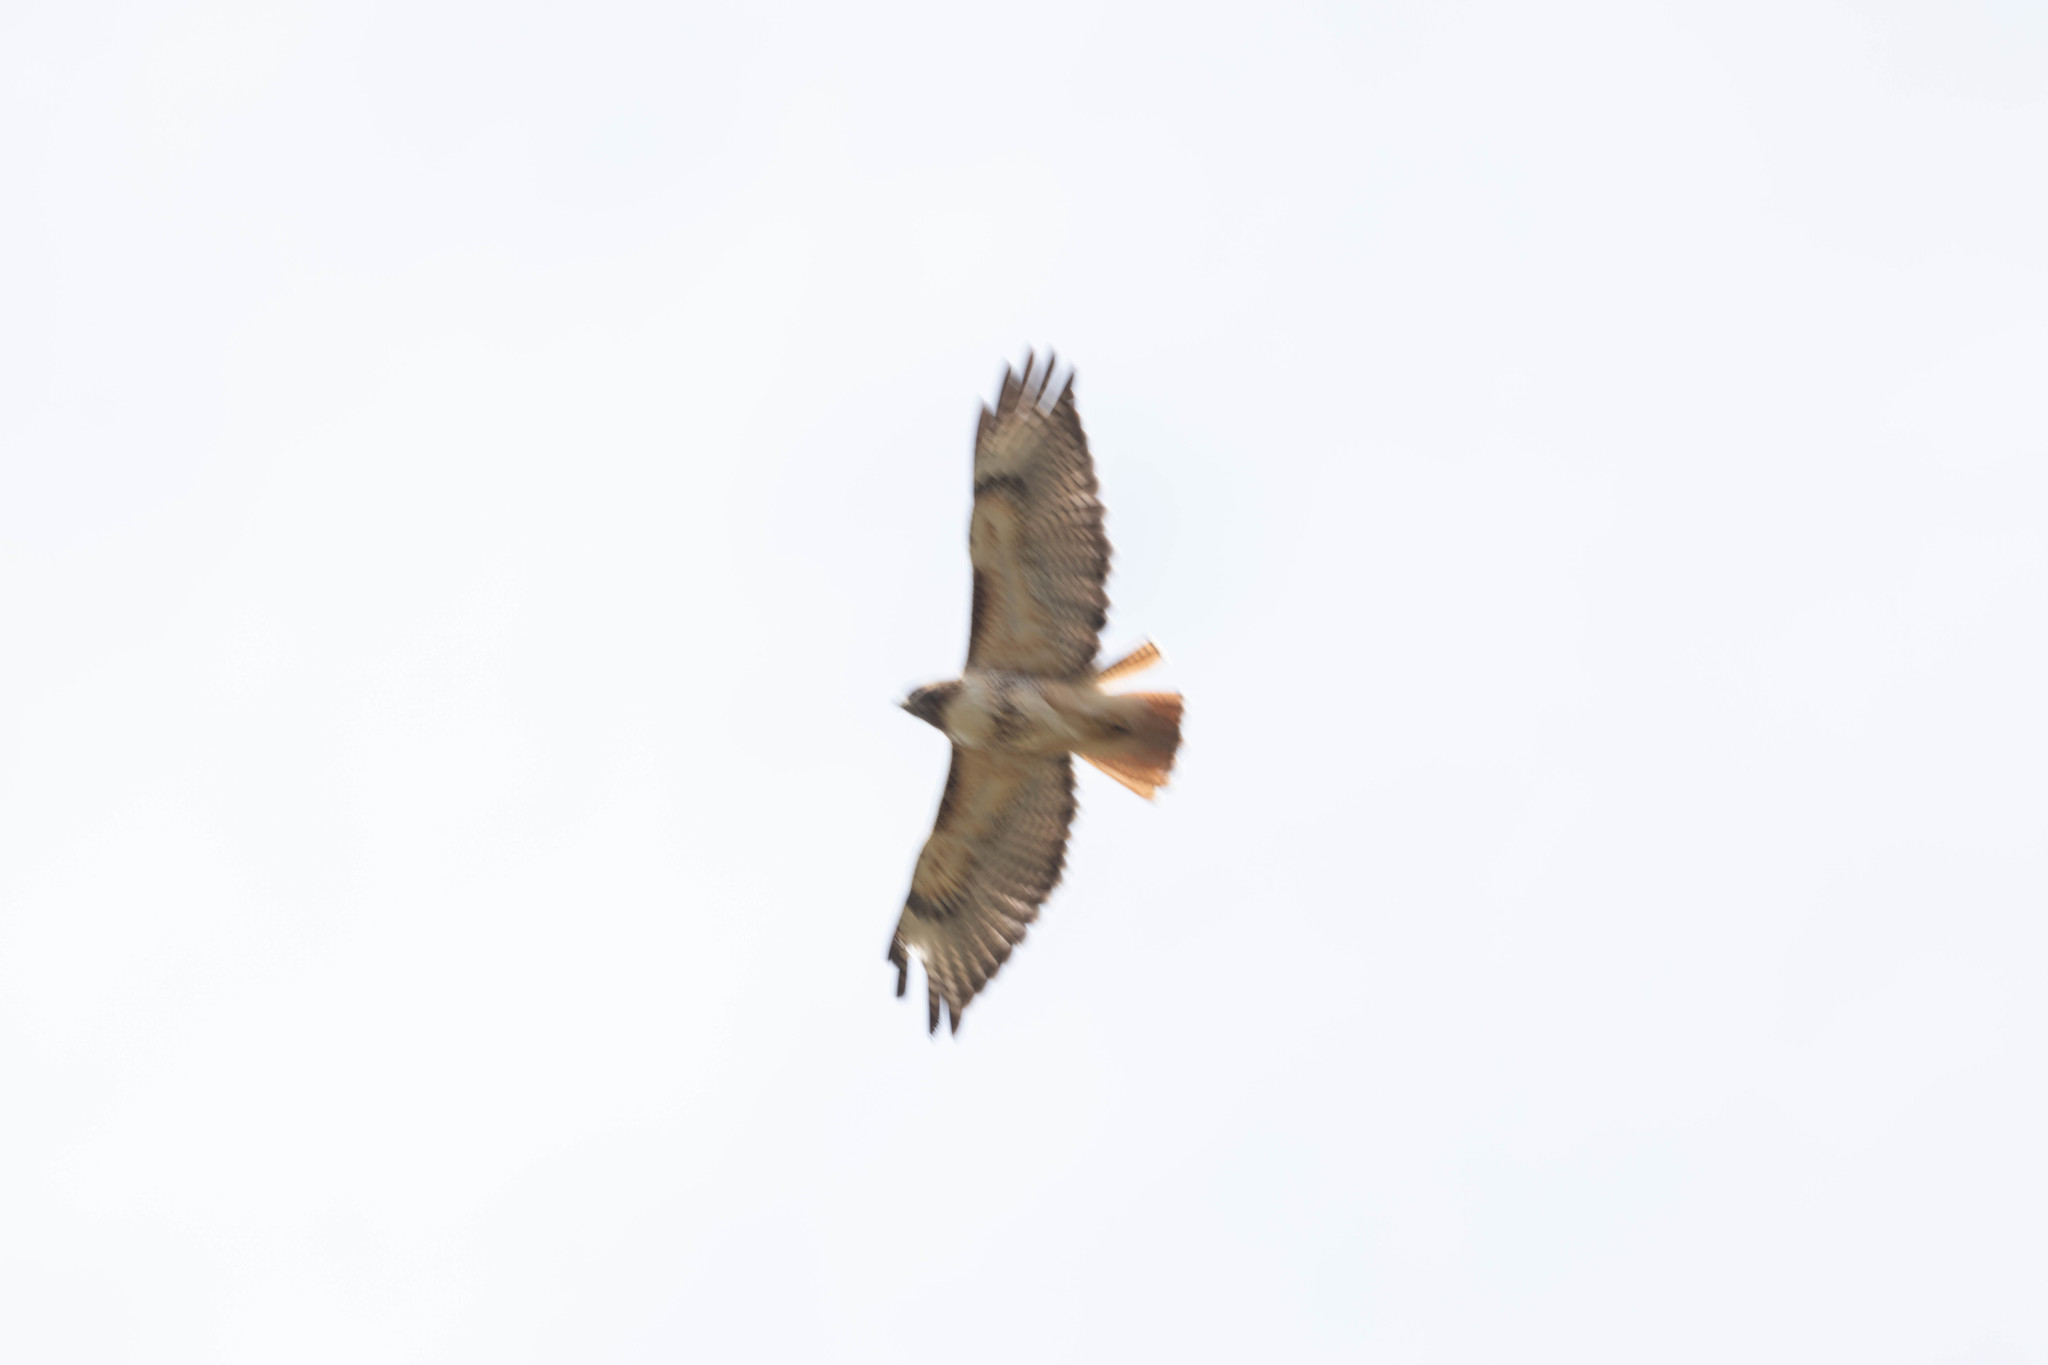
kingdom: Animalia
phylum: Chordata
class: Aves
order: Accipitriformes
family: Accipitridae
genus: Buteo
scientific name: Buteo jamaicensis
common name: Red-tailed hawk
